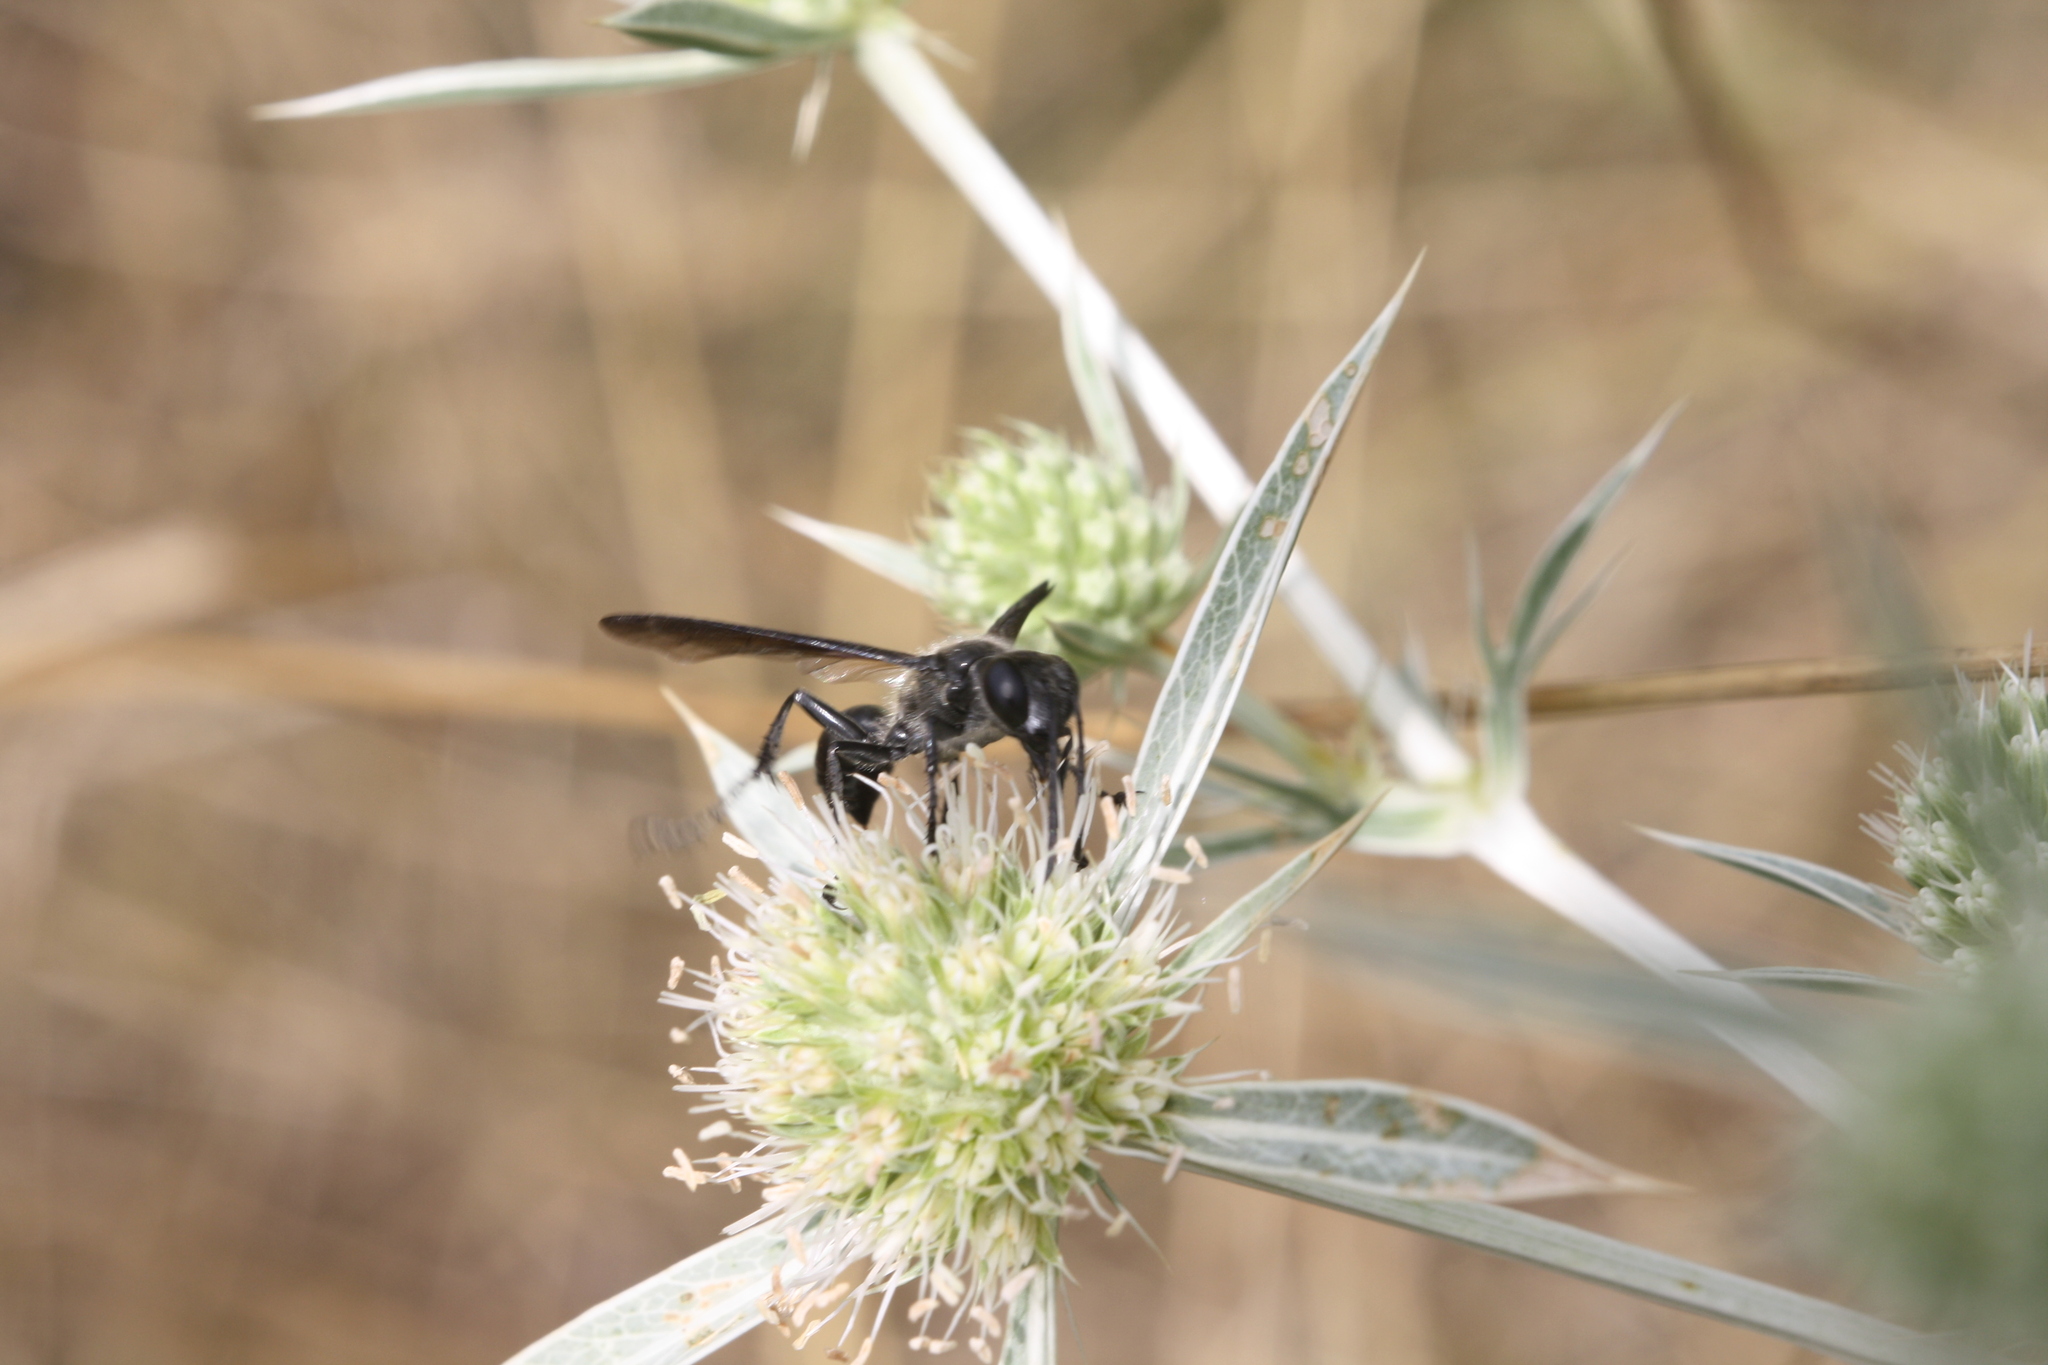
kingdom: Animalia
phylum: Arthropoda
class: Insecta
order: Hymenoptera
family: Sphecidae
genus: Isodontia
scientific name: Isodontia mexicana
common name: Mud dauber
